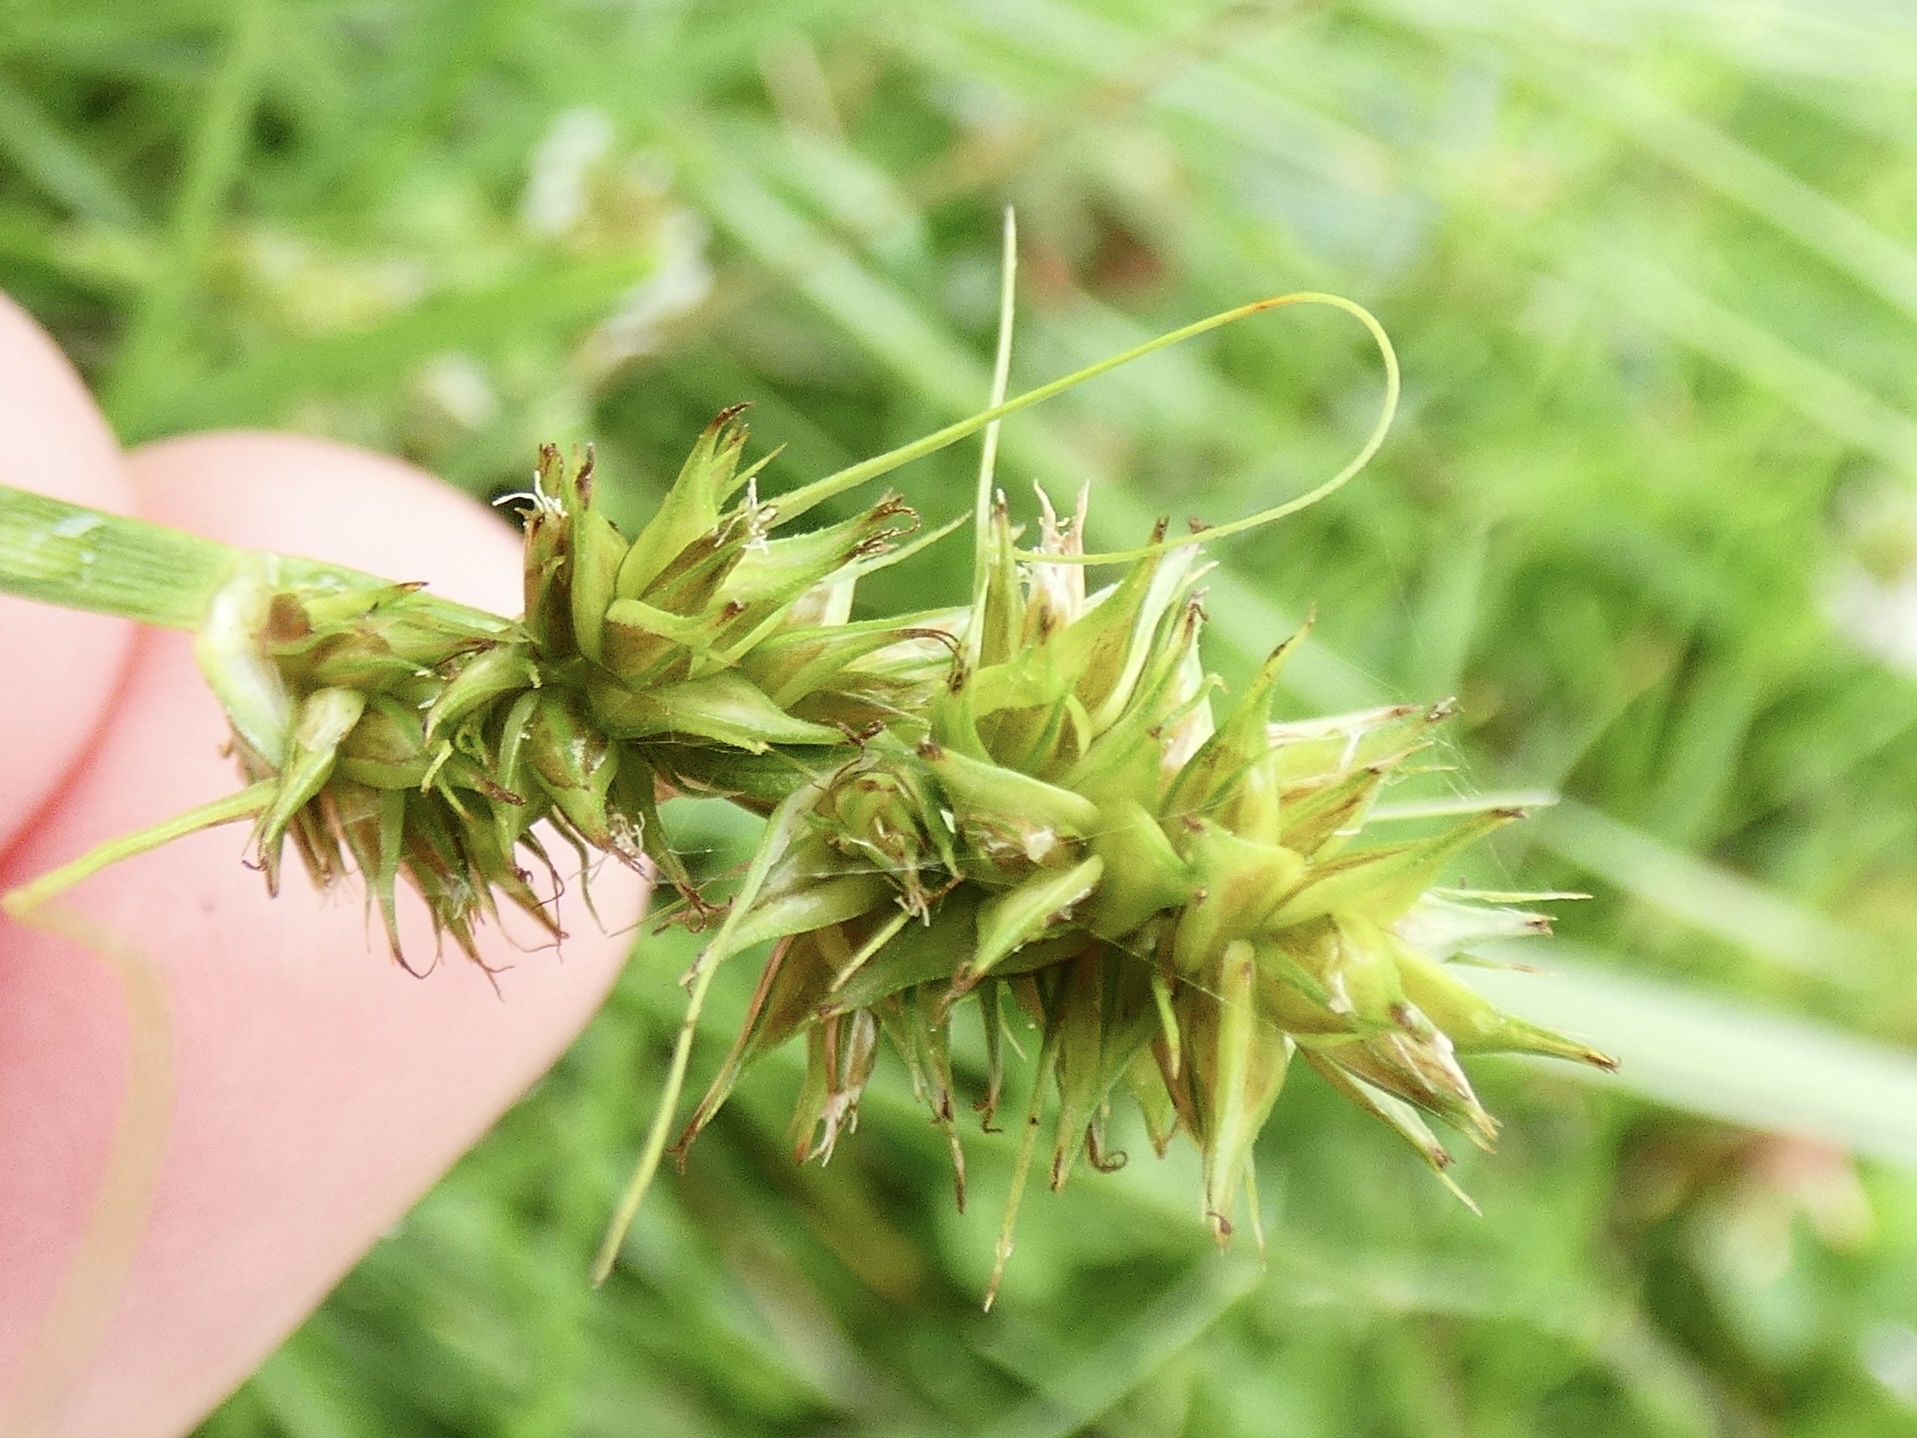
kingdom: Plantae
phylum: Tracheophyta
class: Liliopsida
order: Poales
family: Cyperaceae
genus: Carex
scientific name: Carex otrubae
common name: False fox-sedge
